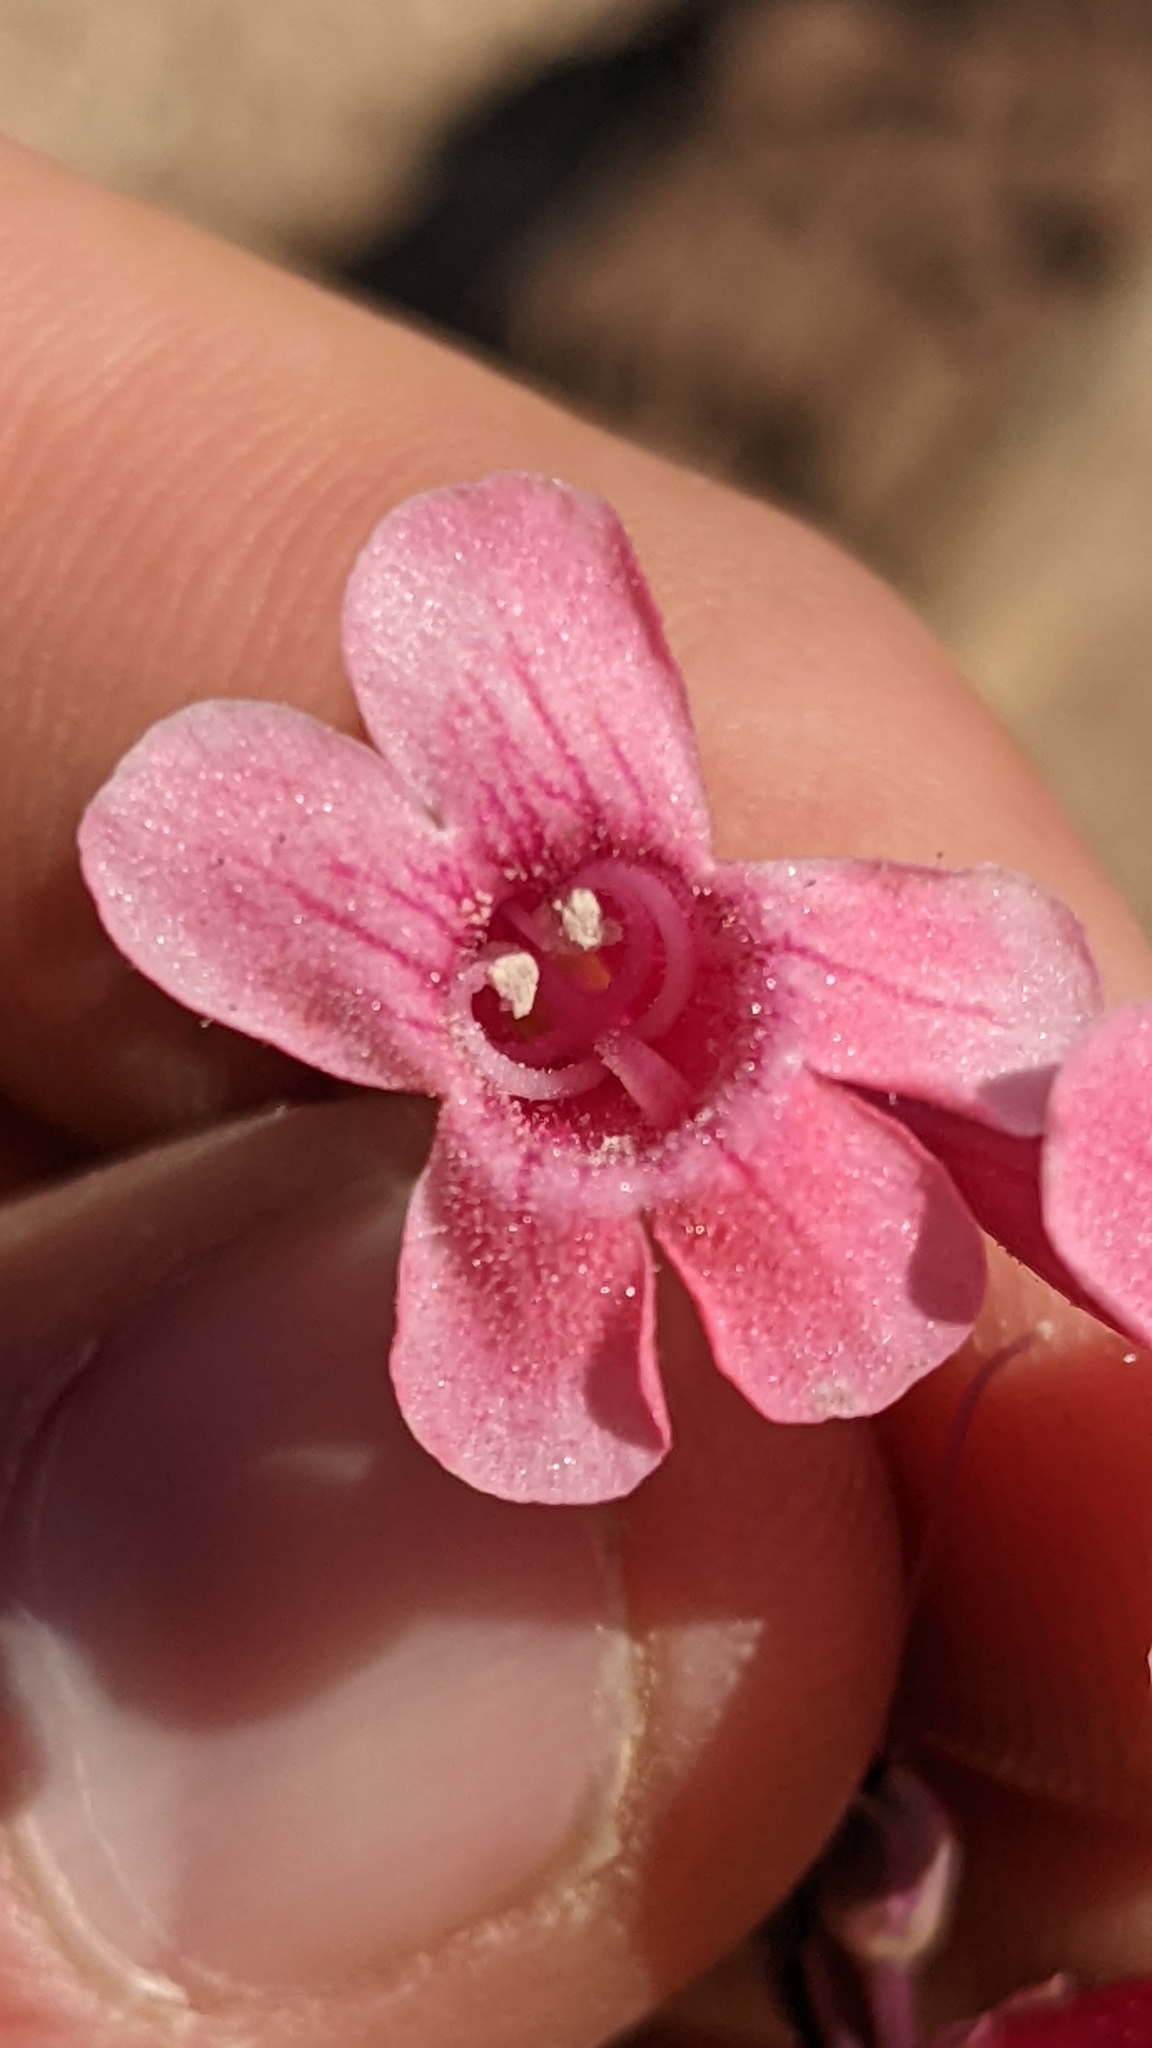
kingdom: Plantae
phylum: Tracheophyta
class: Magnoliopsida
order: Lamiales
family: Plantaginaceae
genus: Penstemon
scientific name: Penstemon confusus
